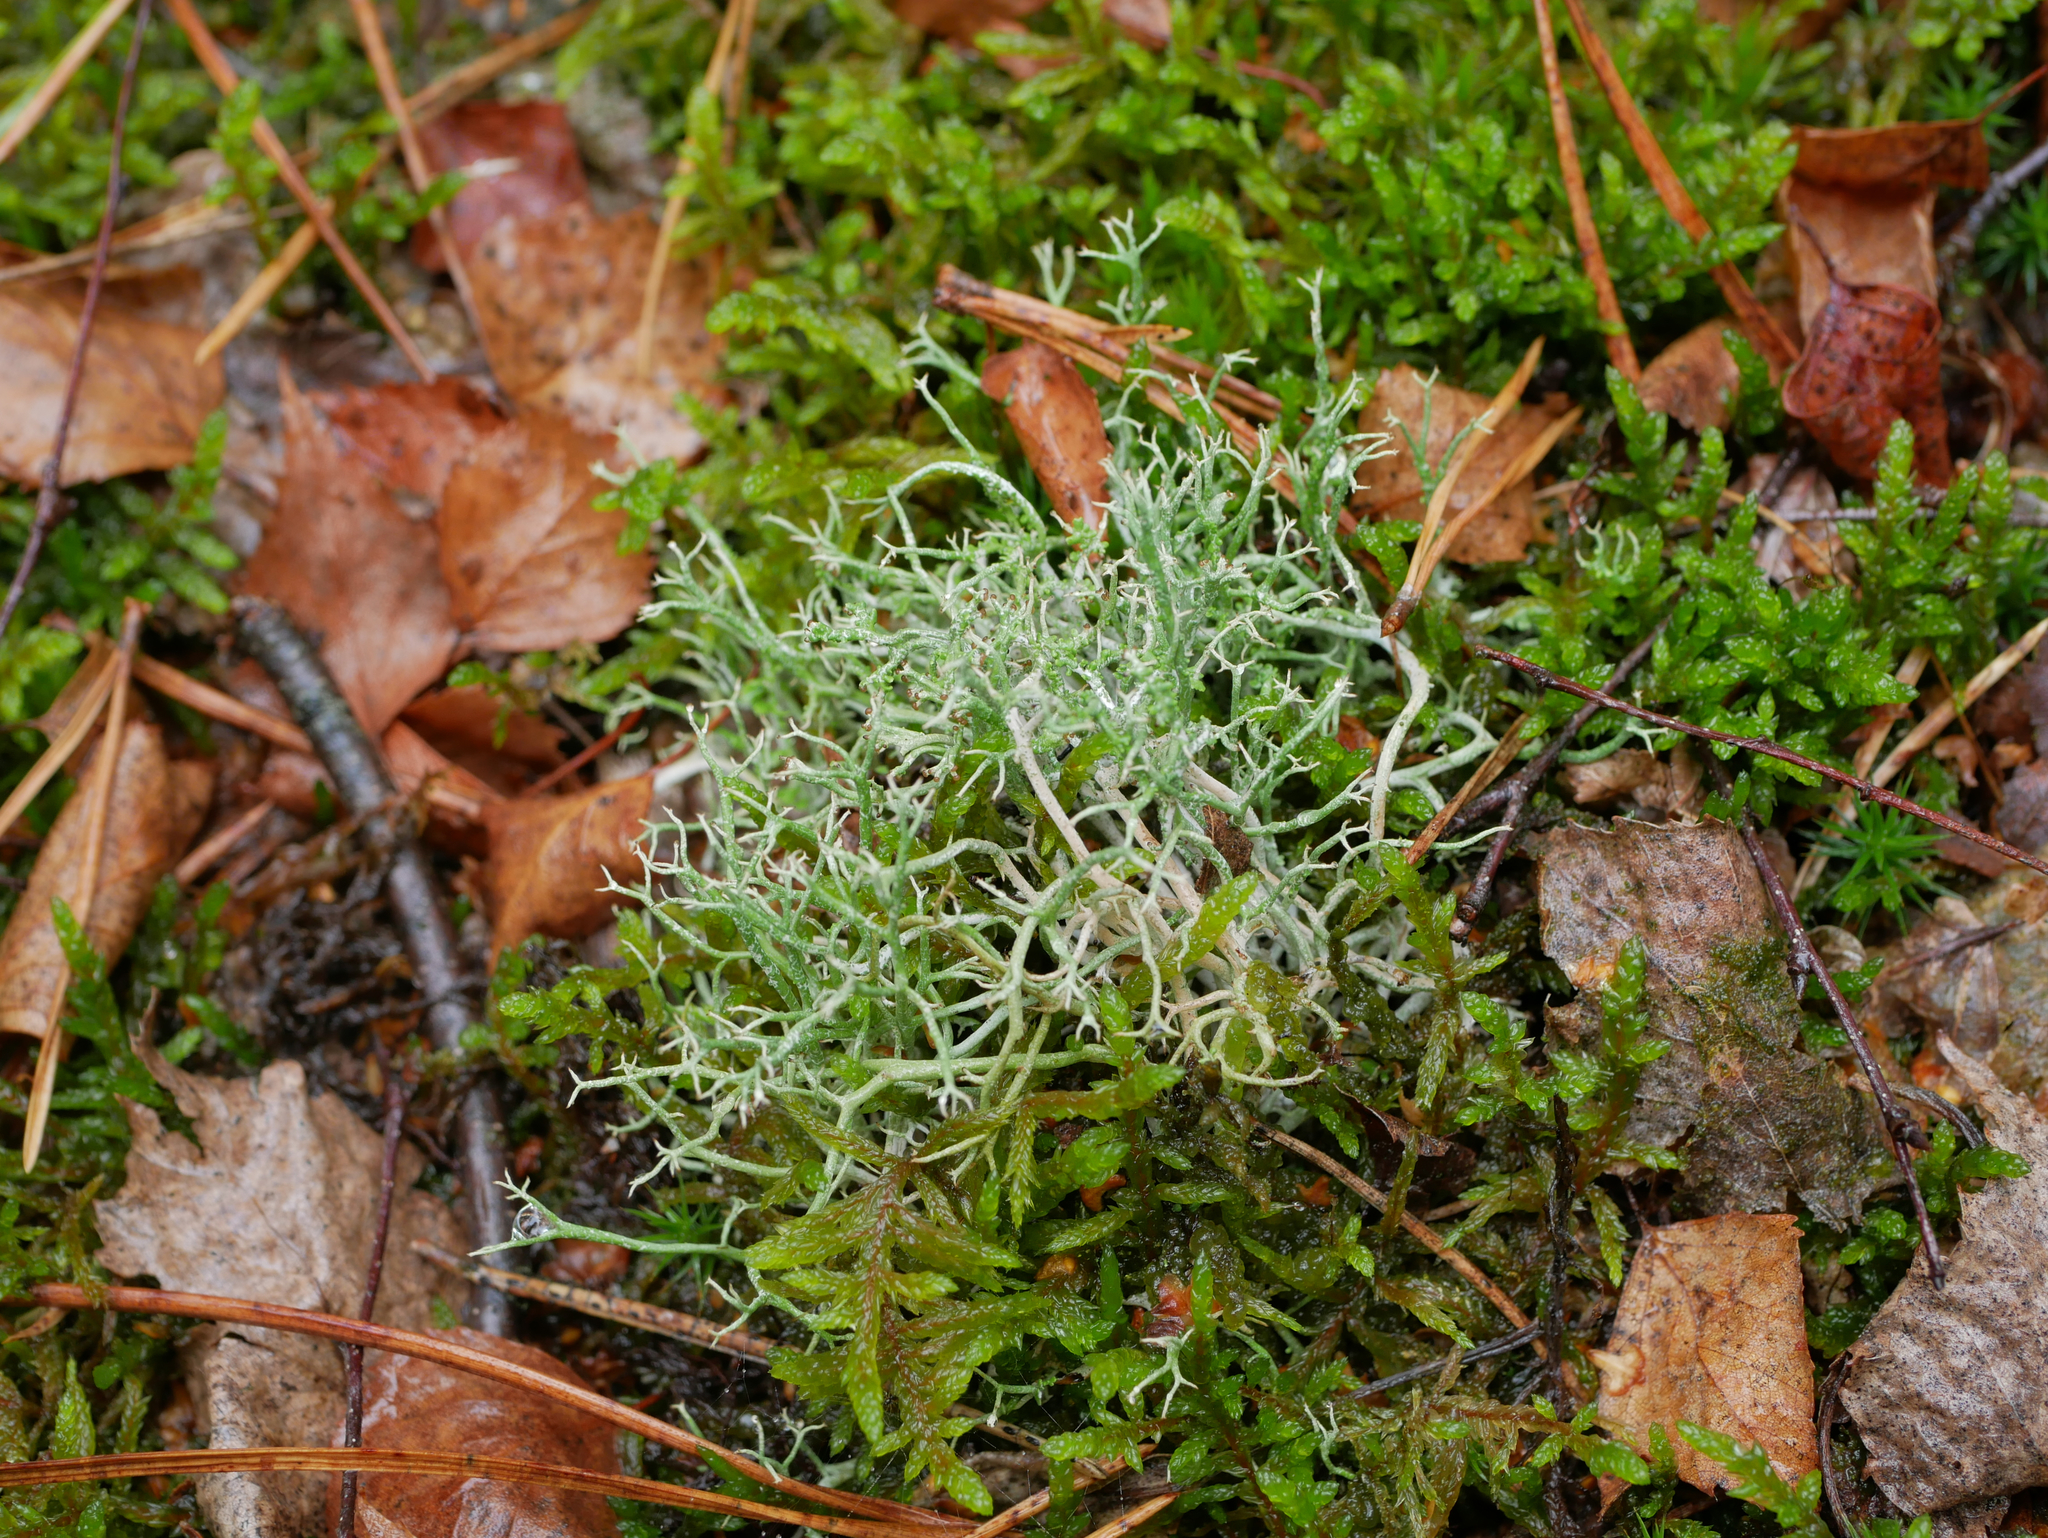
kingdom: Fungi
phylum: Ascomycota
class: Lecanoromycetes
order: Lecanorales
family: Cladoniaceae
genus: Cladonia
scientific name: Cladonia furcata
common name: Many-forked cladonia
